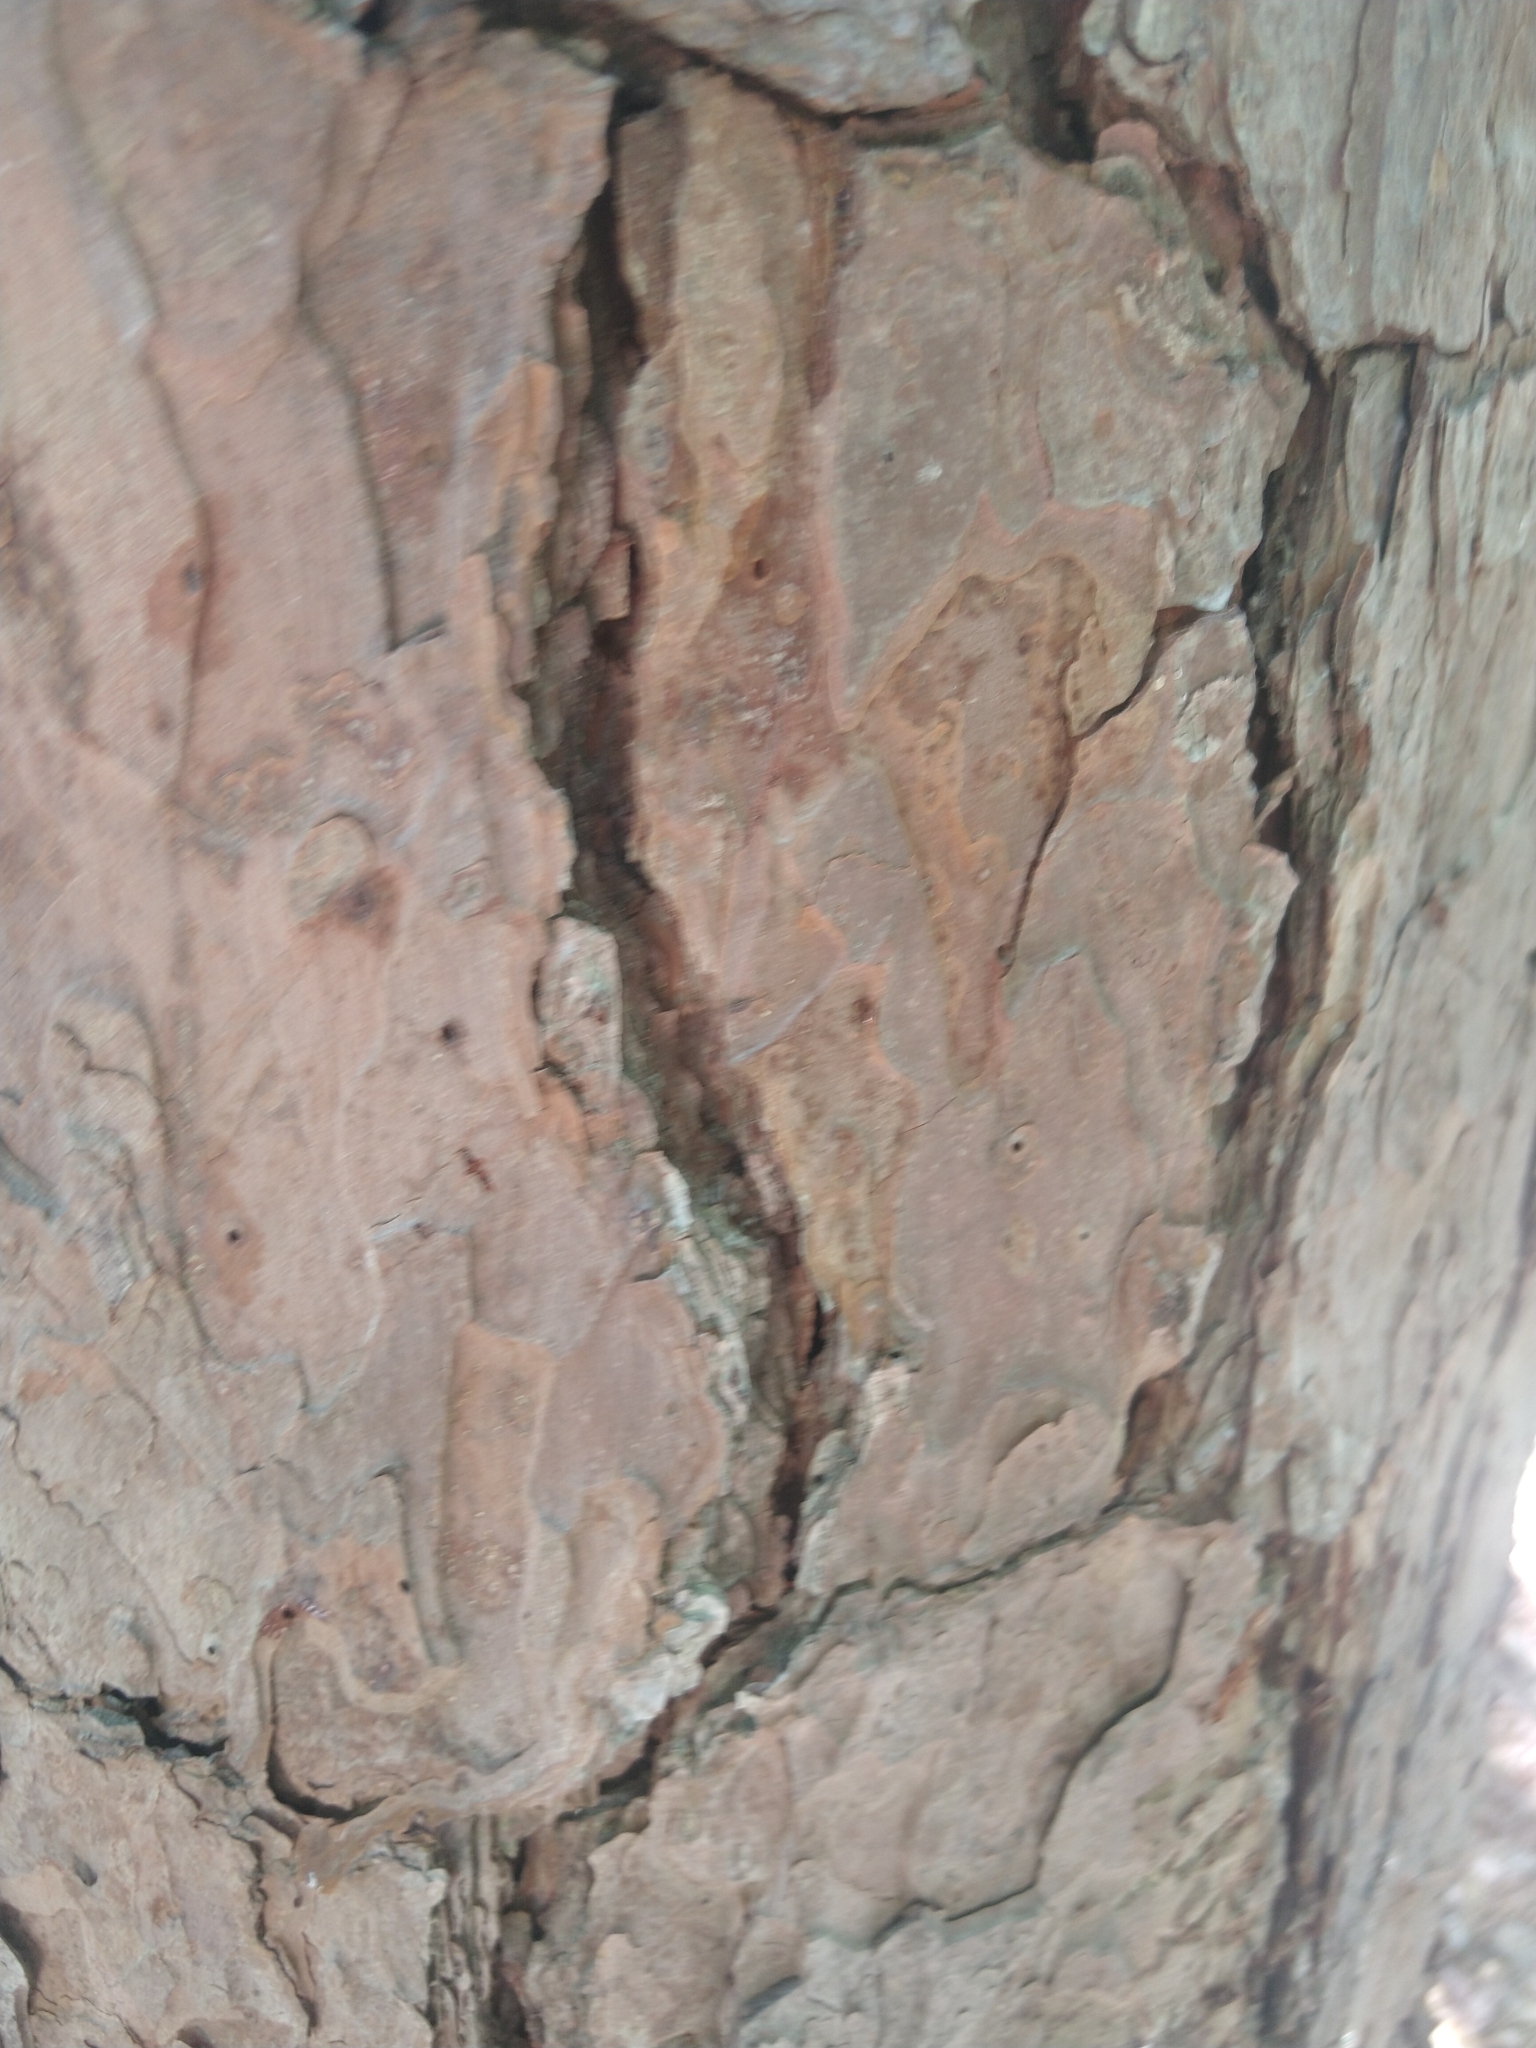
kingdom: Plantae
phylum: Tracheophyta
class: Pinopsida
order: Pinales
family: Pinaceae
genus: Pinus
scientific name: Pinus echinata
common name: Shortleaf pine
